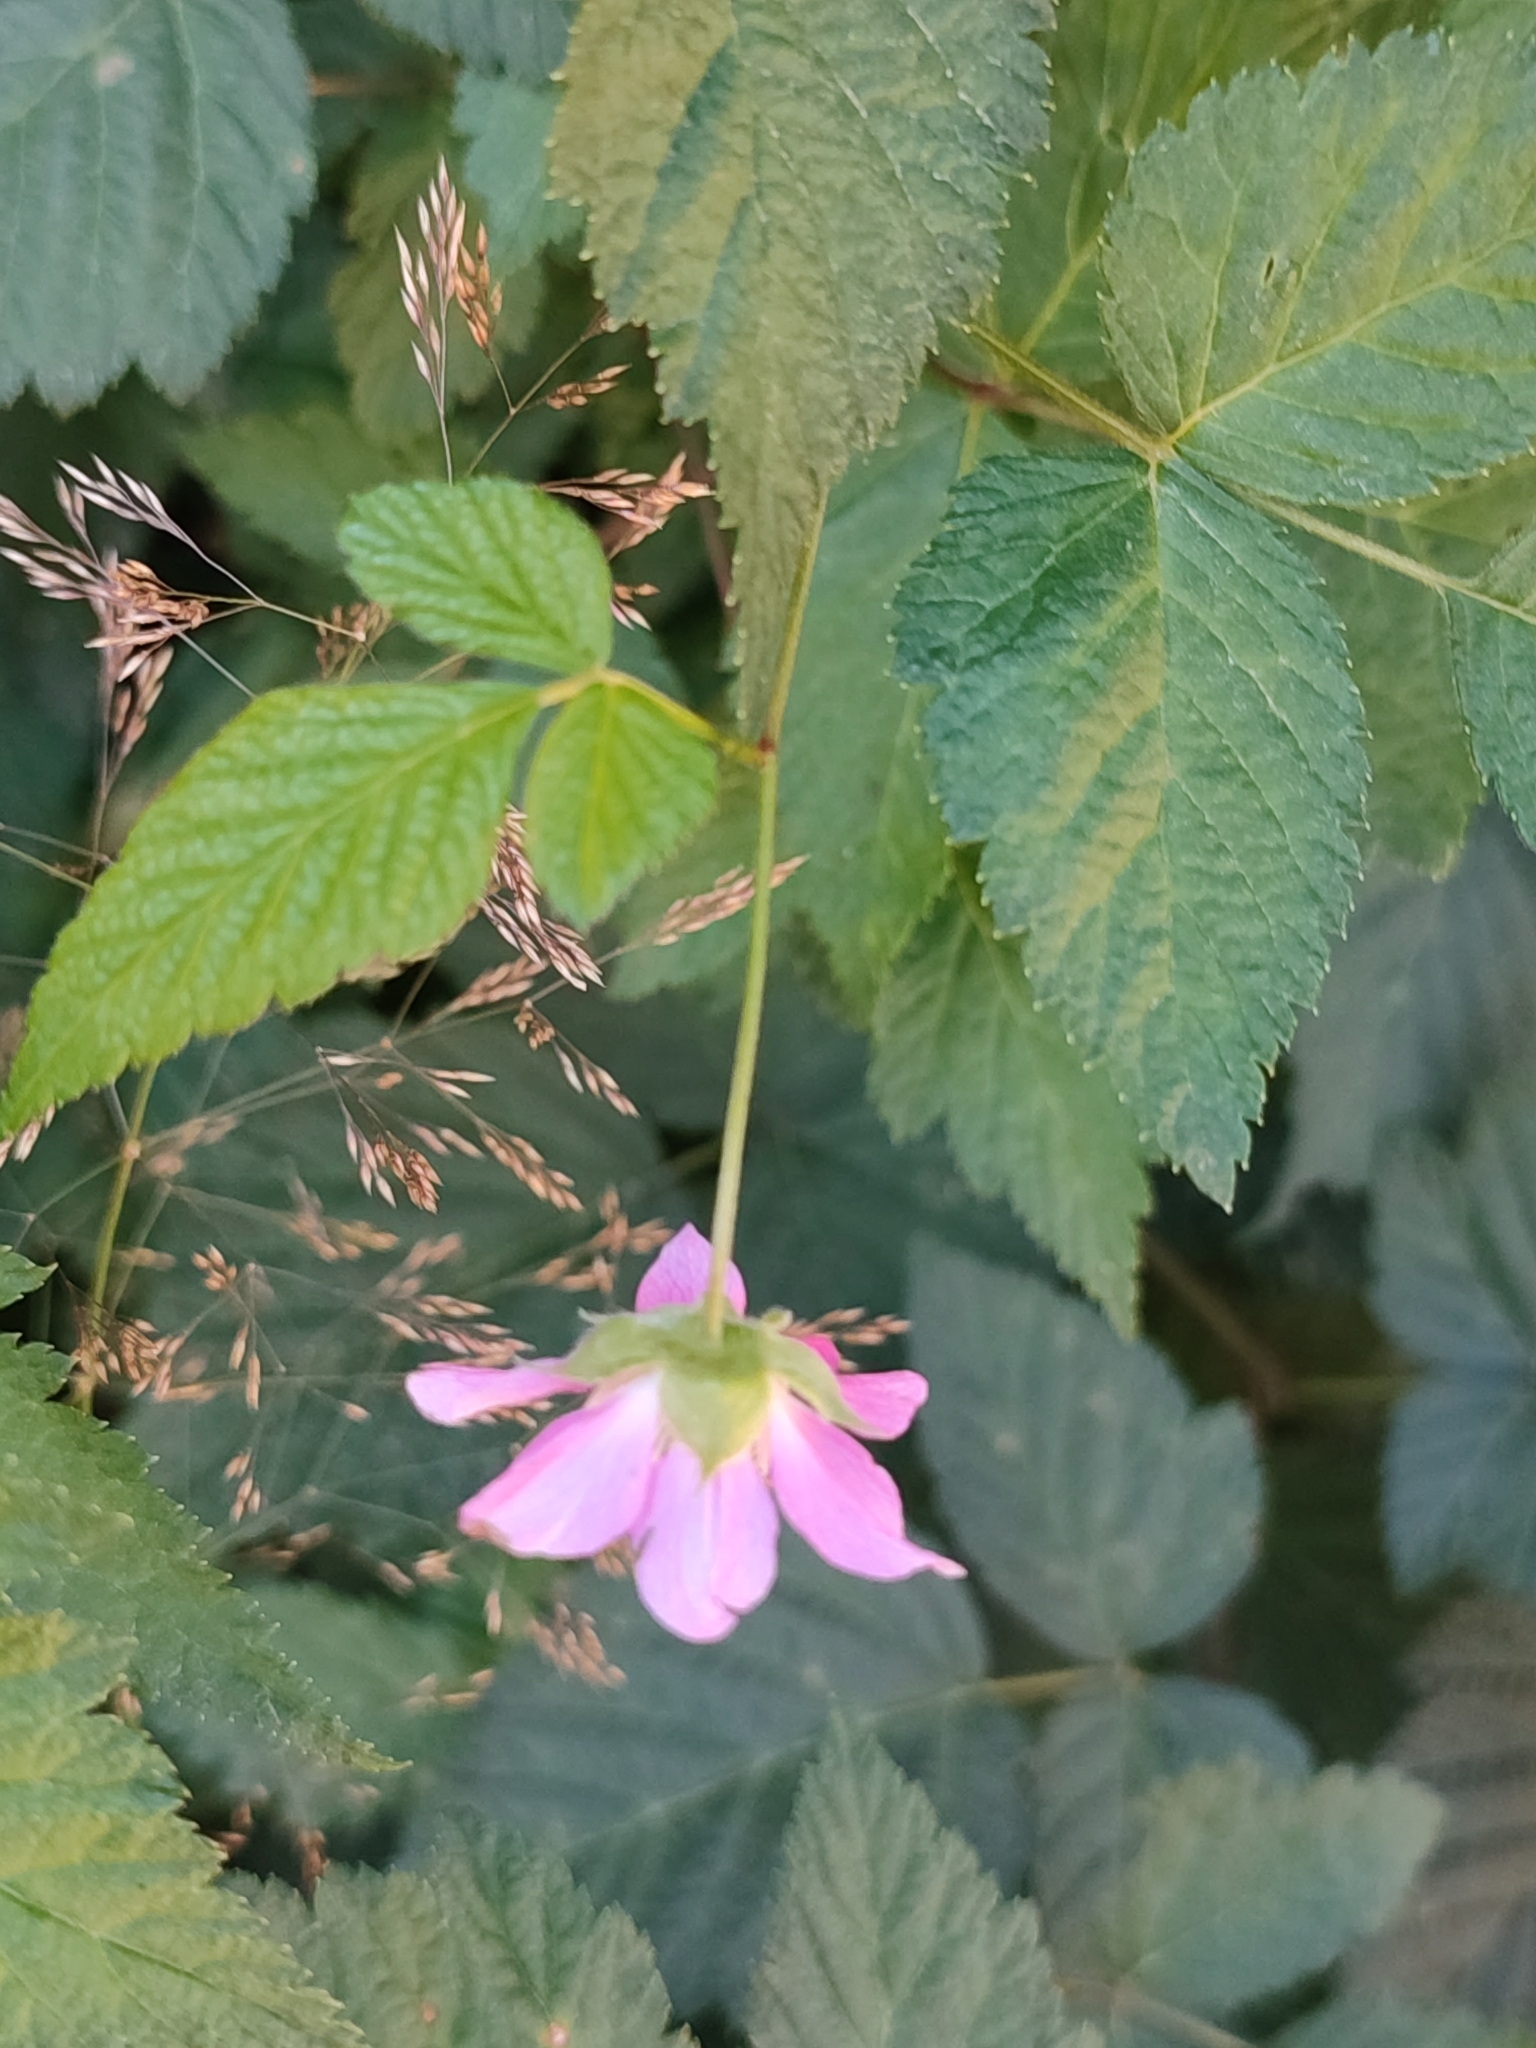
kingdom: Plantae
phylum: Tracheophyta
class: Magnoliopsida
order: Rosales
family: Rosaceae
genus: Rubus
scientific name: Rubus spectabilis
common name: Salmonberry
